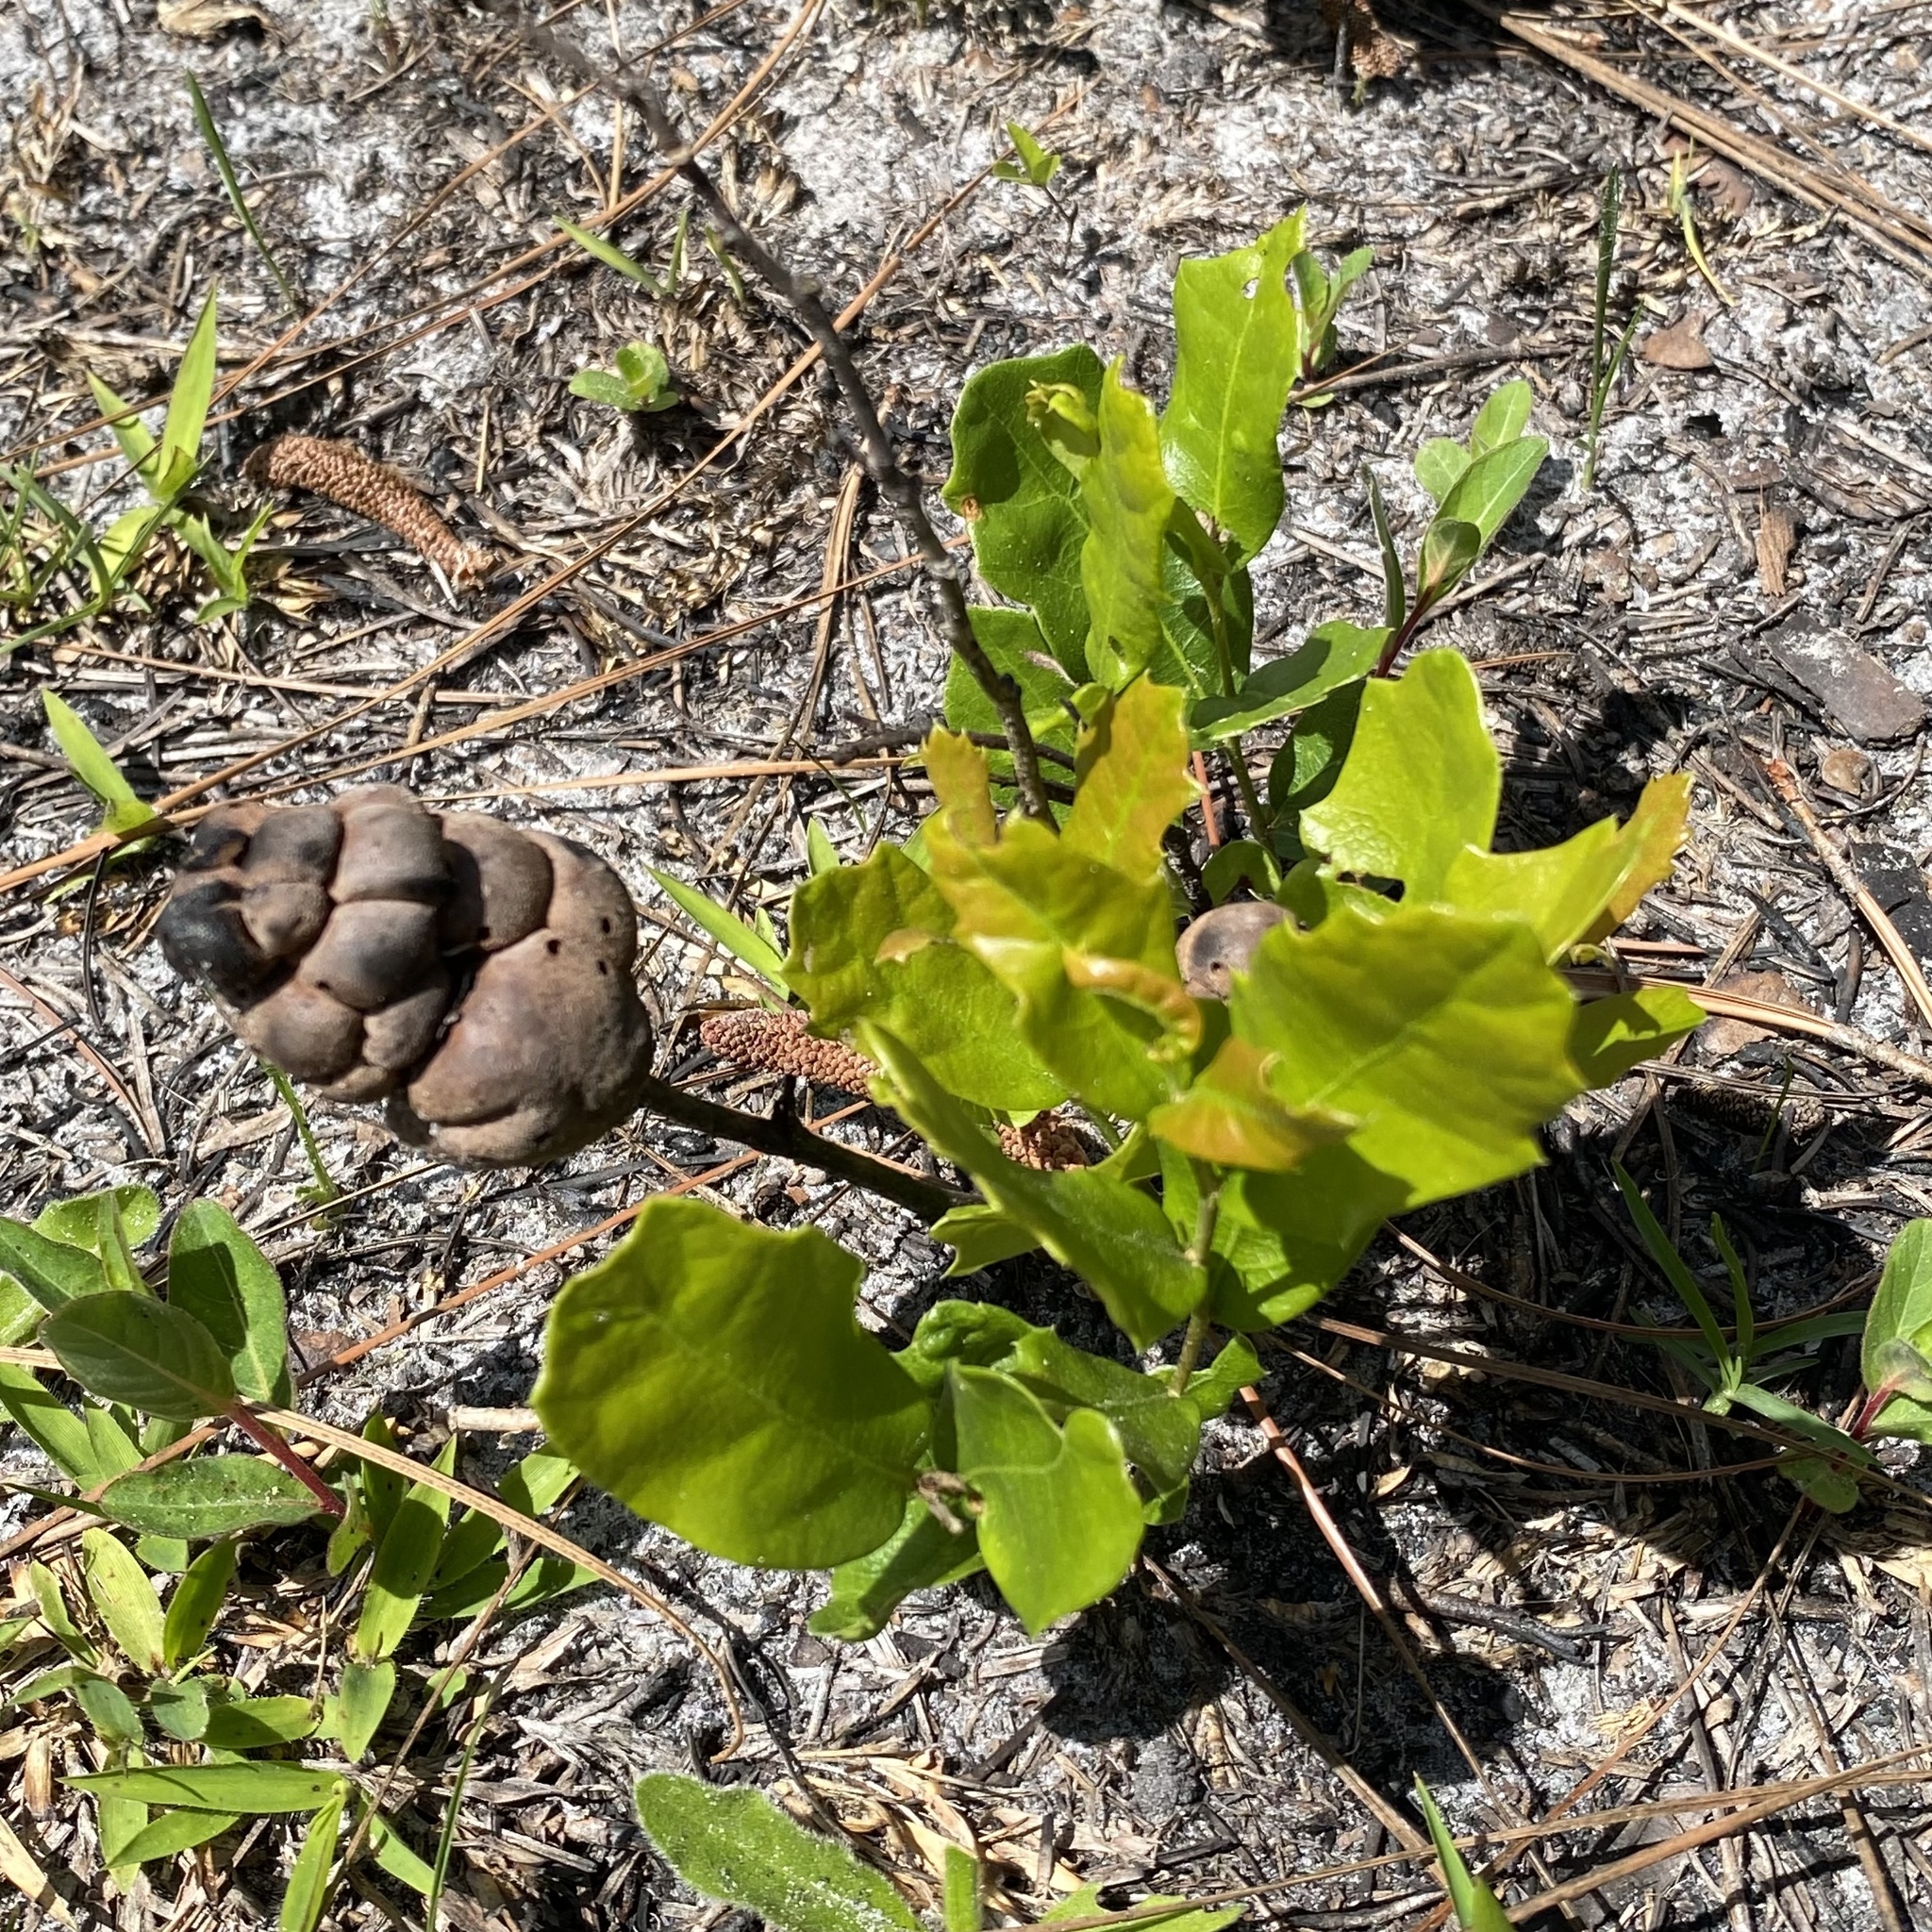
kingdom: Animalia
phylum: Arthropoda
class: Insecta
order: Hymenoptera
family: Cynipidae
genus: Disholcaspis
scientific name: Disholcaspis
